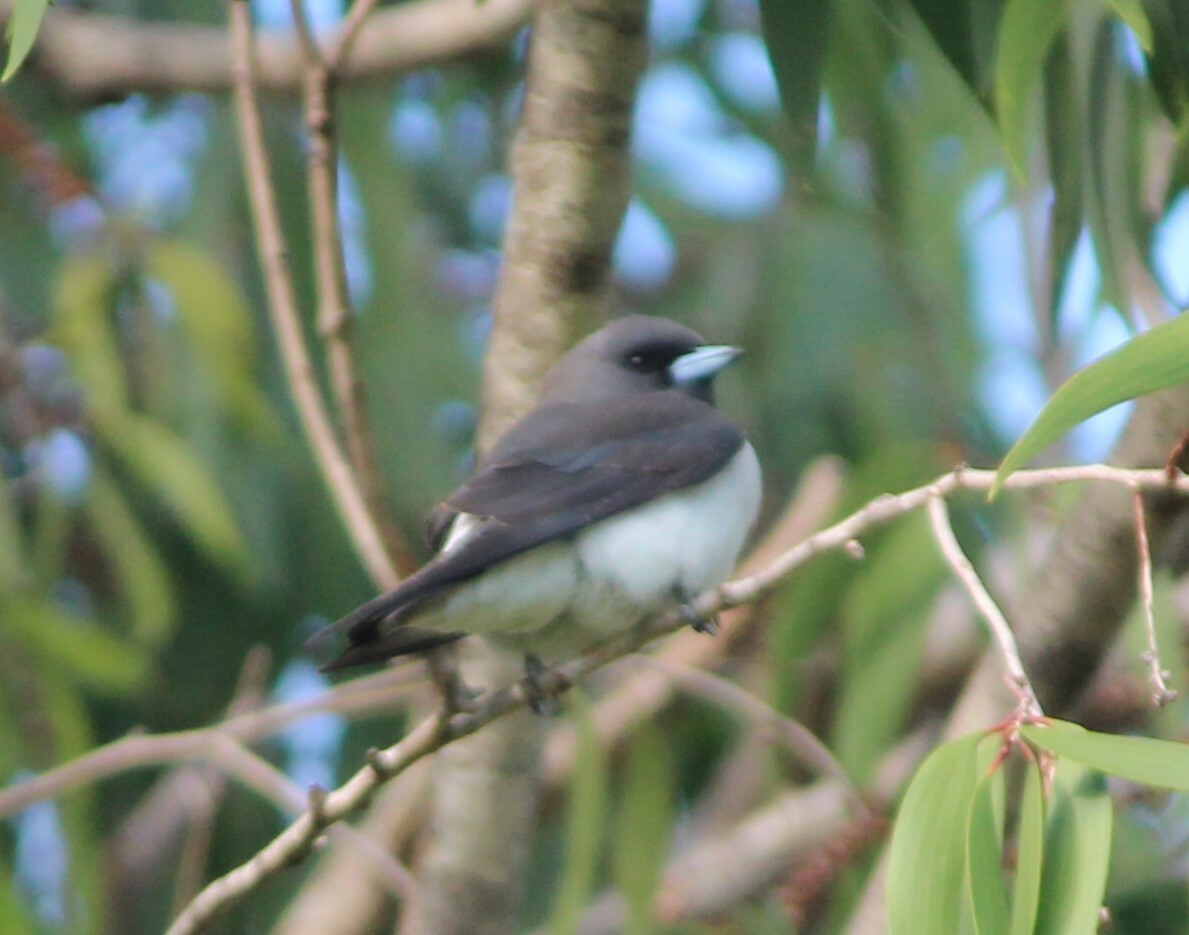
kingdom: Animalia
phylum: Chordata
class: Aves
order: Passeriformes
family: Artamidae
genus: Artamus
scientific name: Artamus leucoryn
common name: White-breasted woodswallow
